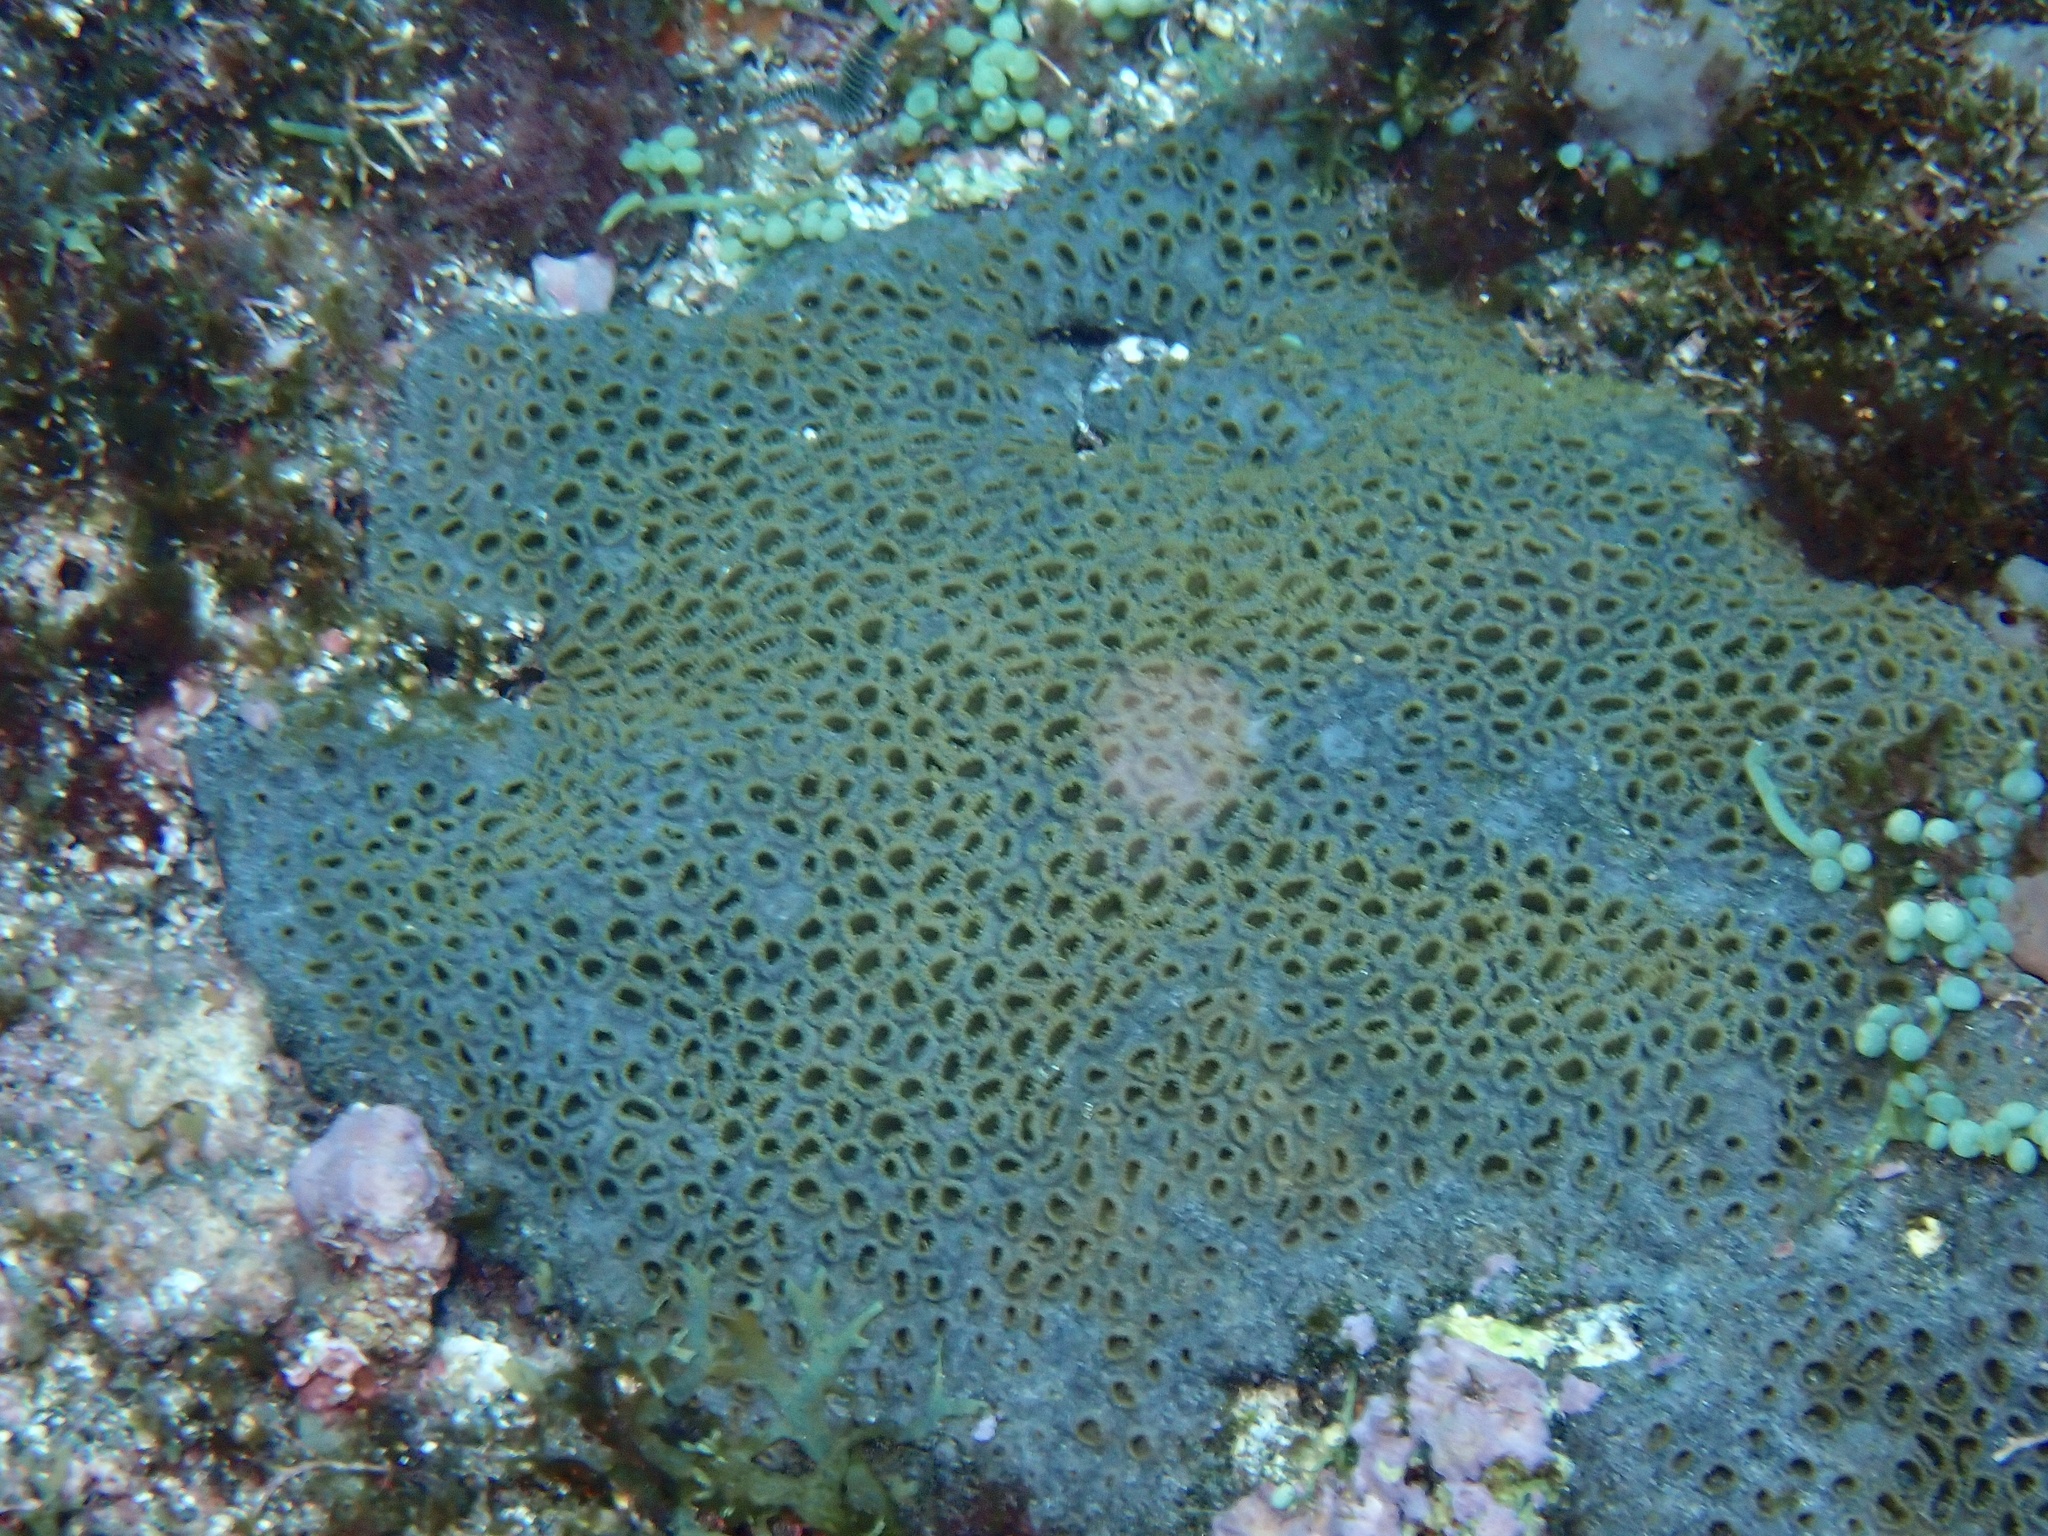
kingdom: Animalia
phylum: Cnidaria
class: Anthozoa
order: Zoantharia
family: Sphenopidae
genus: Palythoa
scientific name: Palythoa caribaeorum
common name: Encrusting colonial anemone
